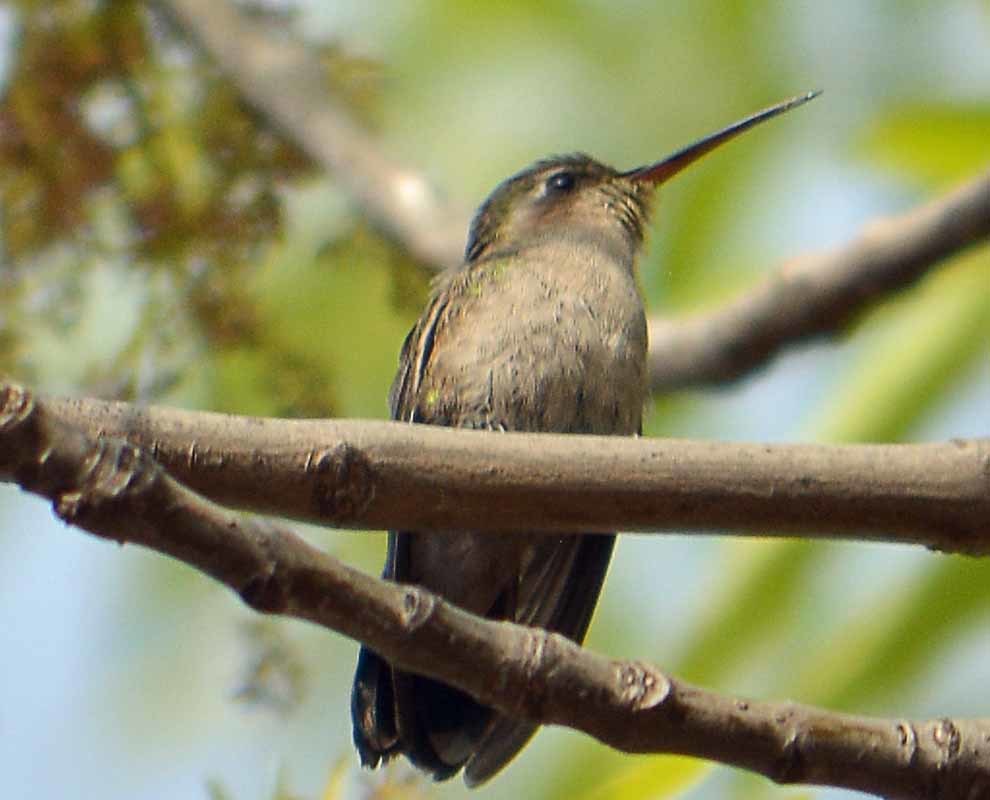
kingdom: Animalia
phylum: Chordata
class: Aves
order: Apodiformes
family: Trochilidae
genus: Cynanthus
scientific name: Cynanthus latirostris
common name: Broad-billed hummingbird
